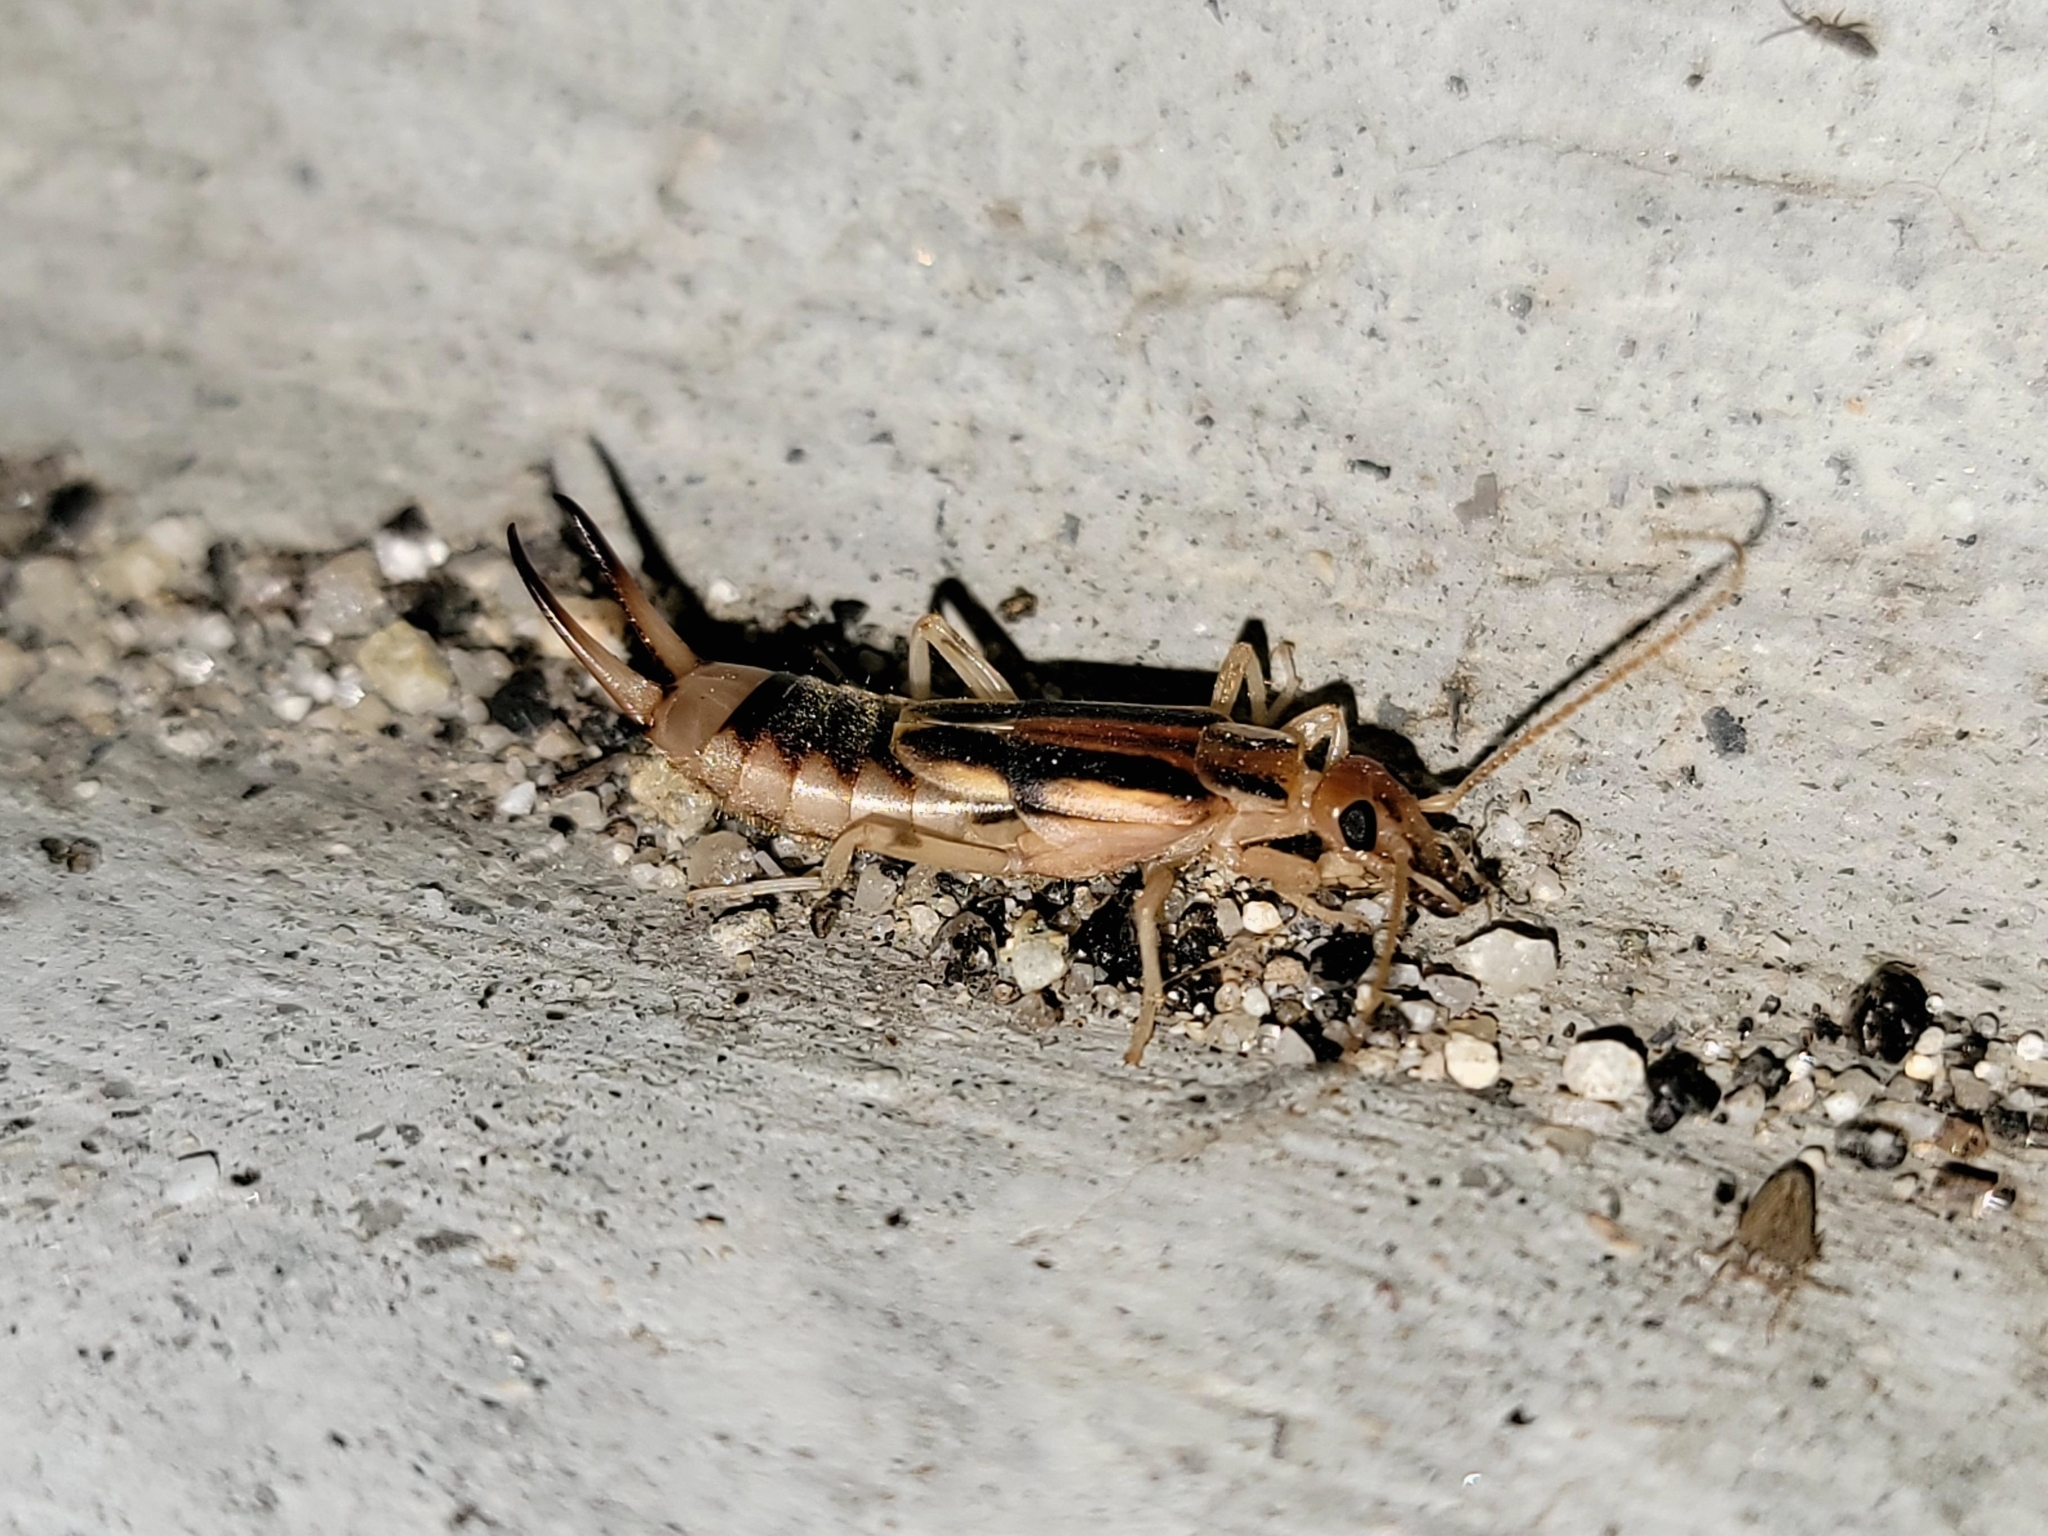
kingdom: Animalia
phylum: Arthropoda
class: Insecta
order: Dermaptera
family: Labiduridae
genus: Labidura
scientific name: Labidura riparia
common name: Striped earwig
